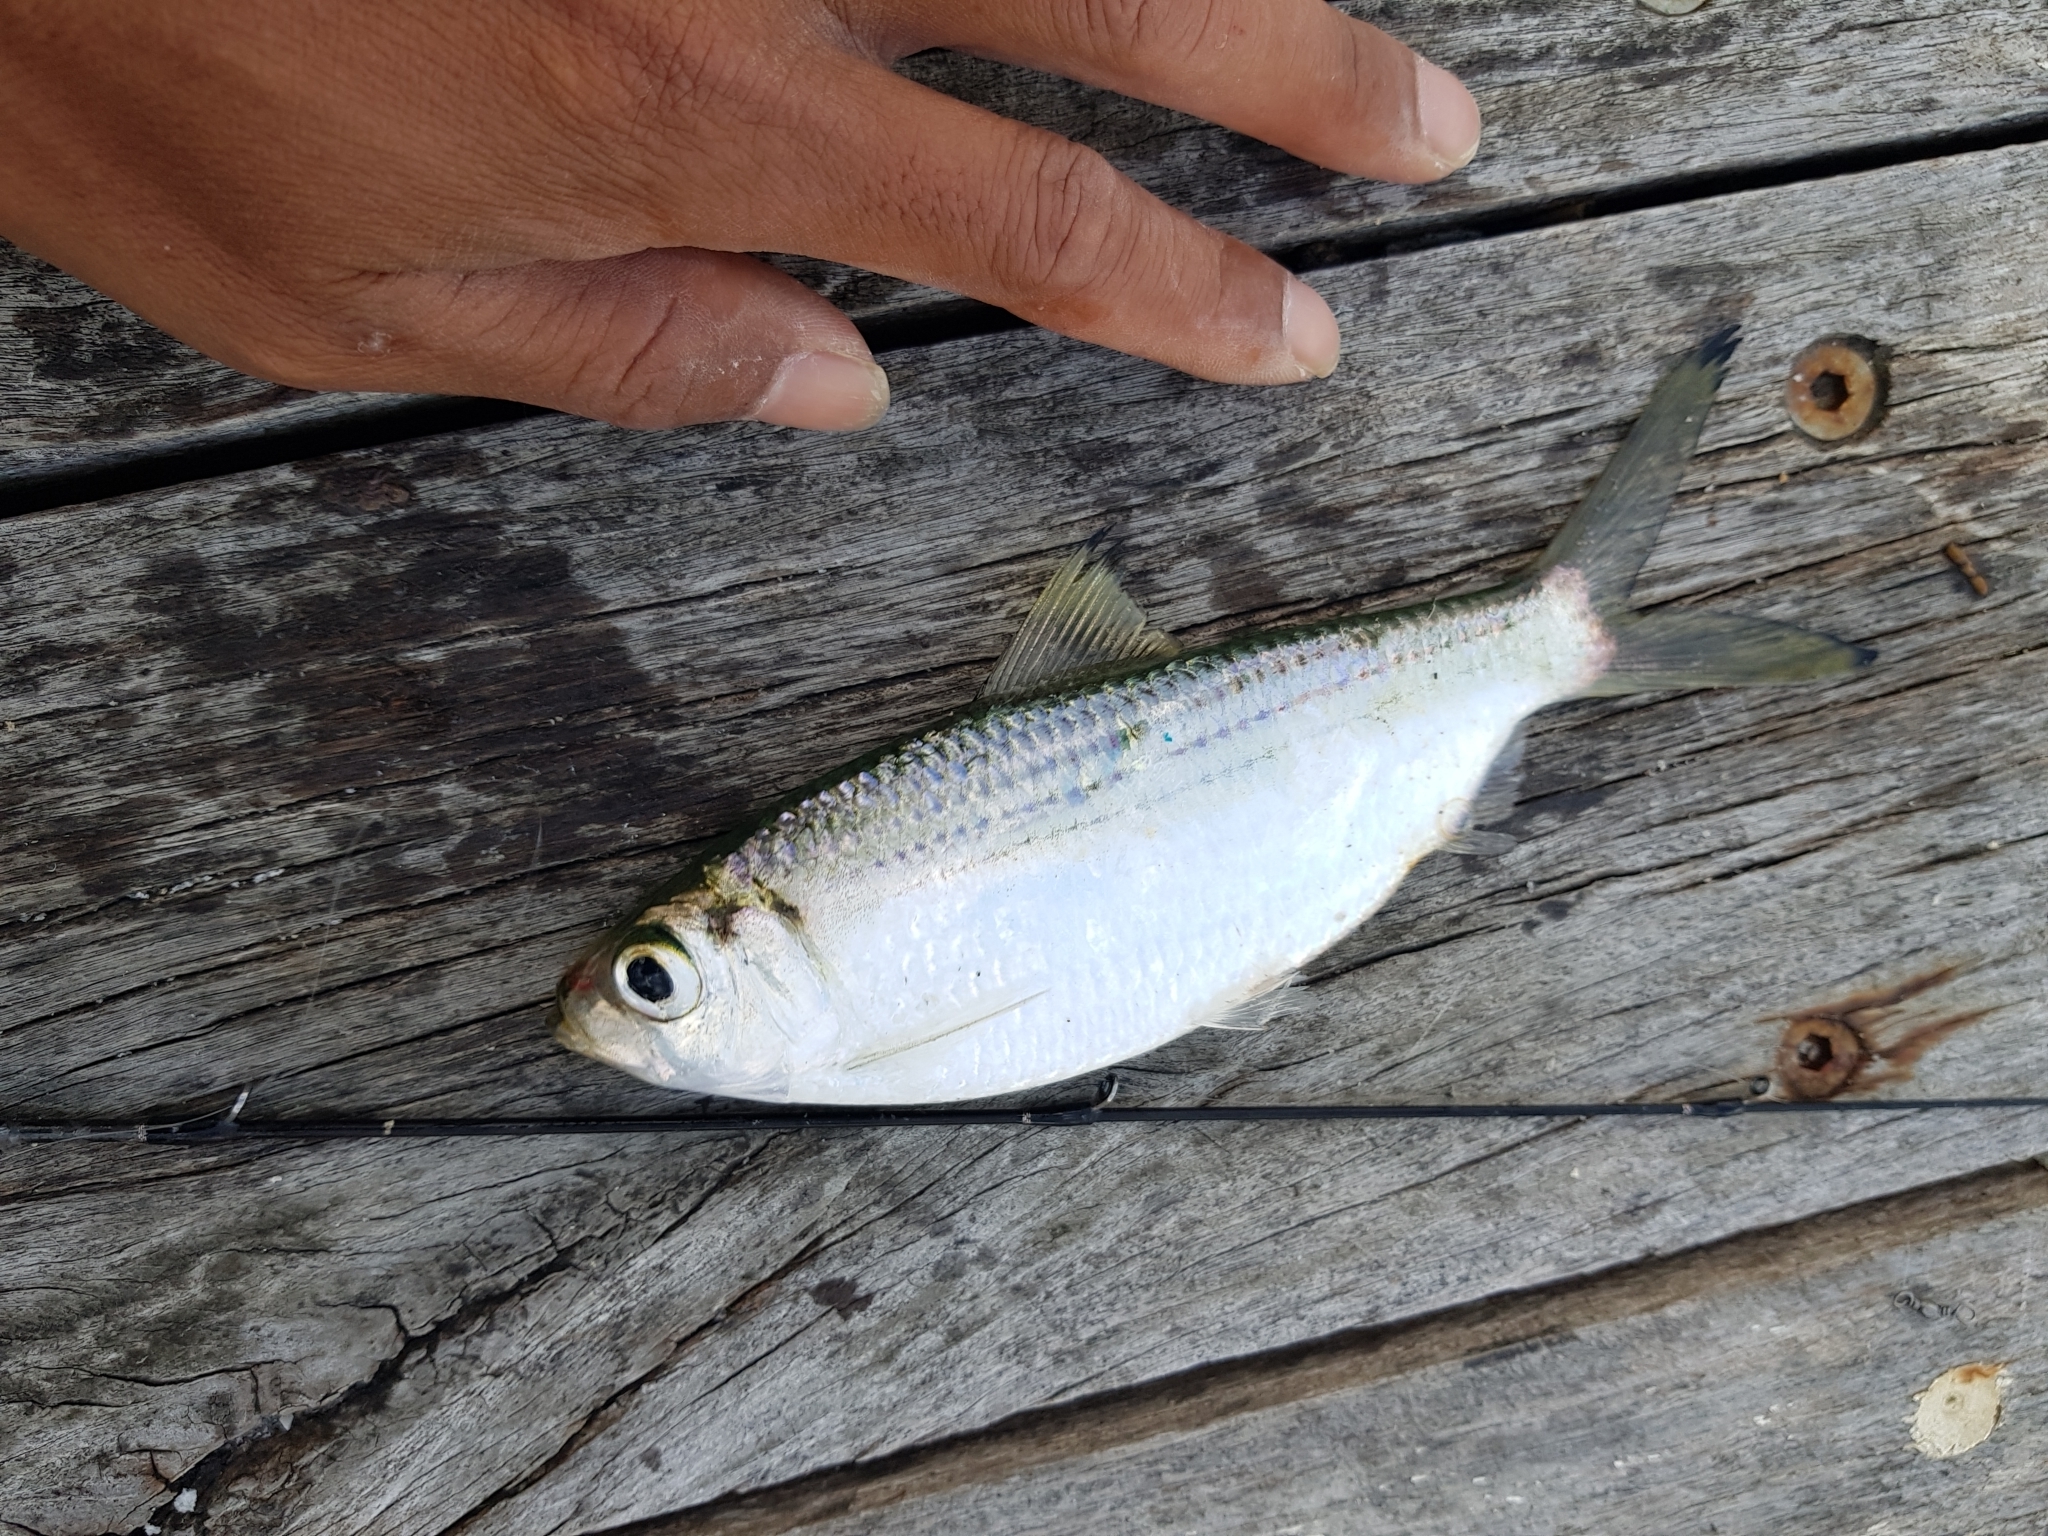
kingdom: Animalia
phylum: Chordata
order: Clupeiformes
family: Clupeidae
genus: Herklotsichthys
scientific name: Herklotsichthys castelnaui
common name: Castelnau's herring
